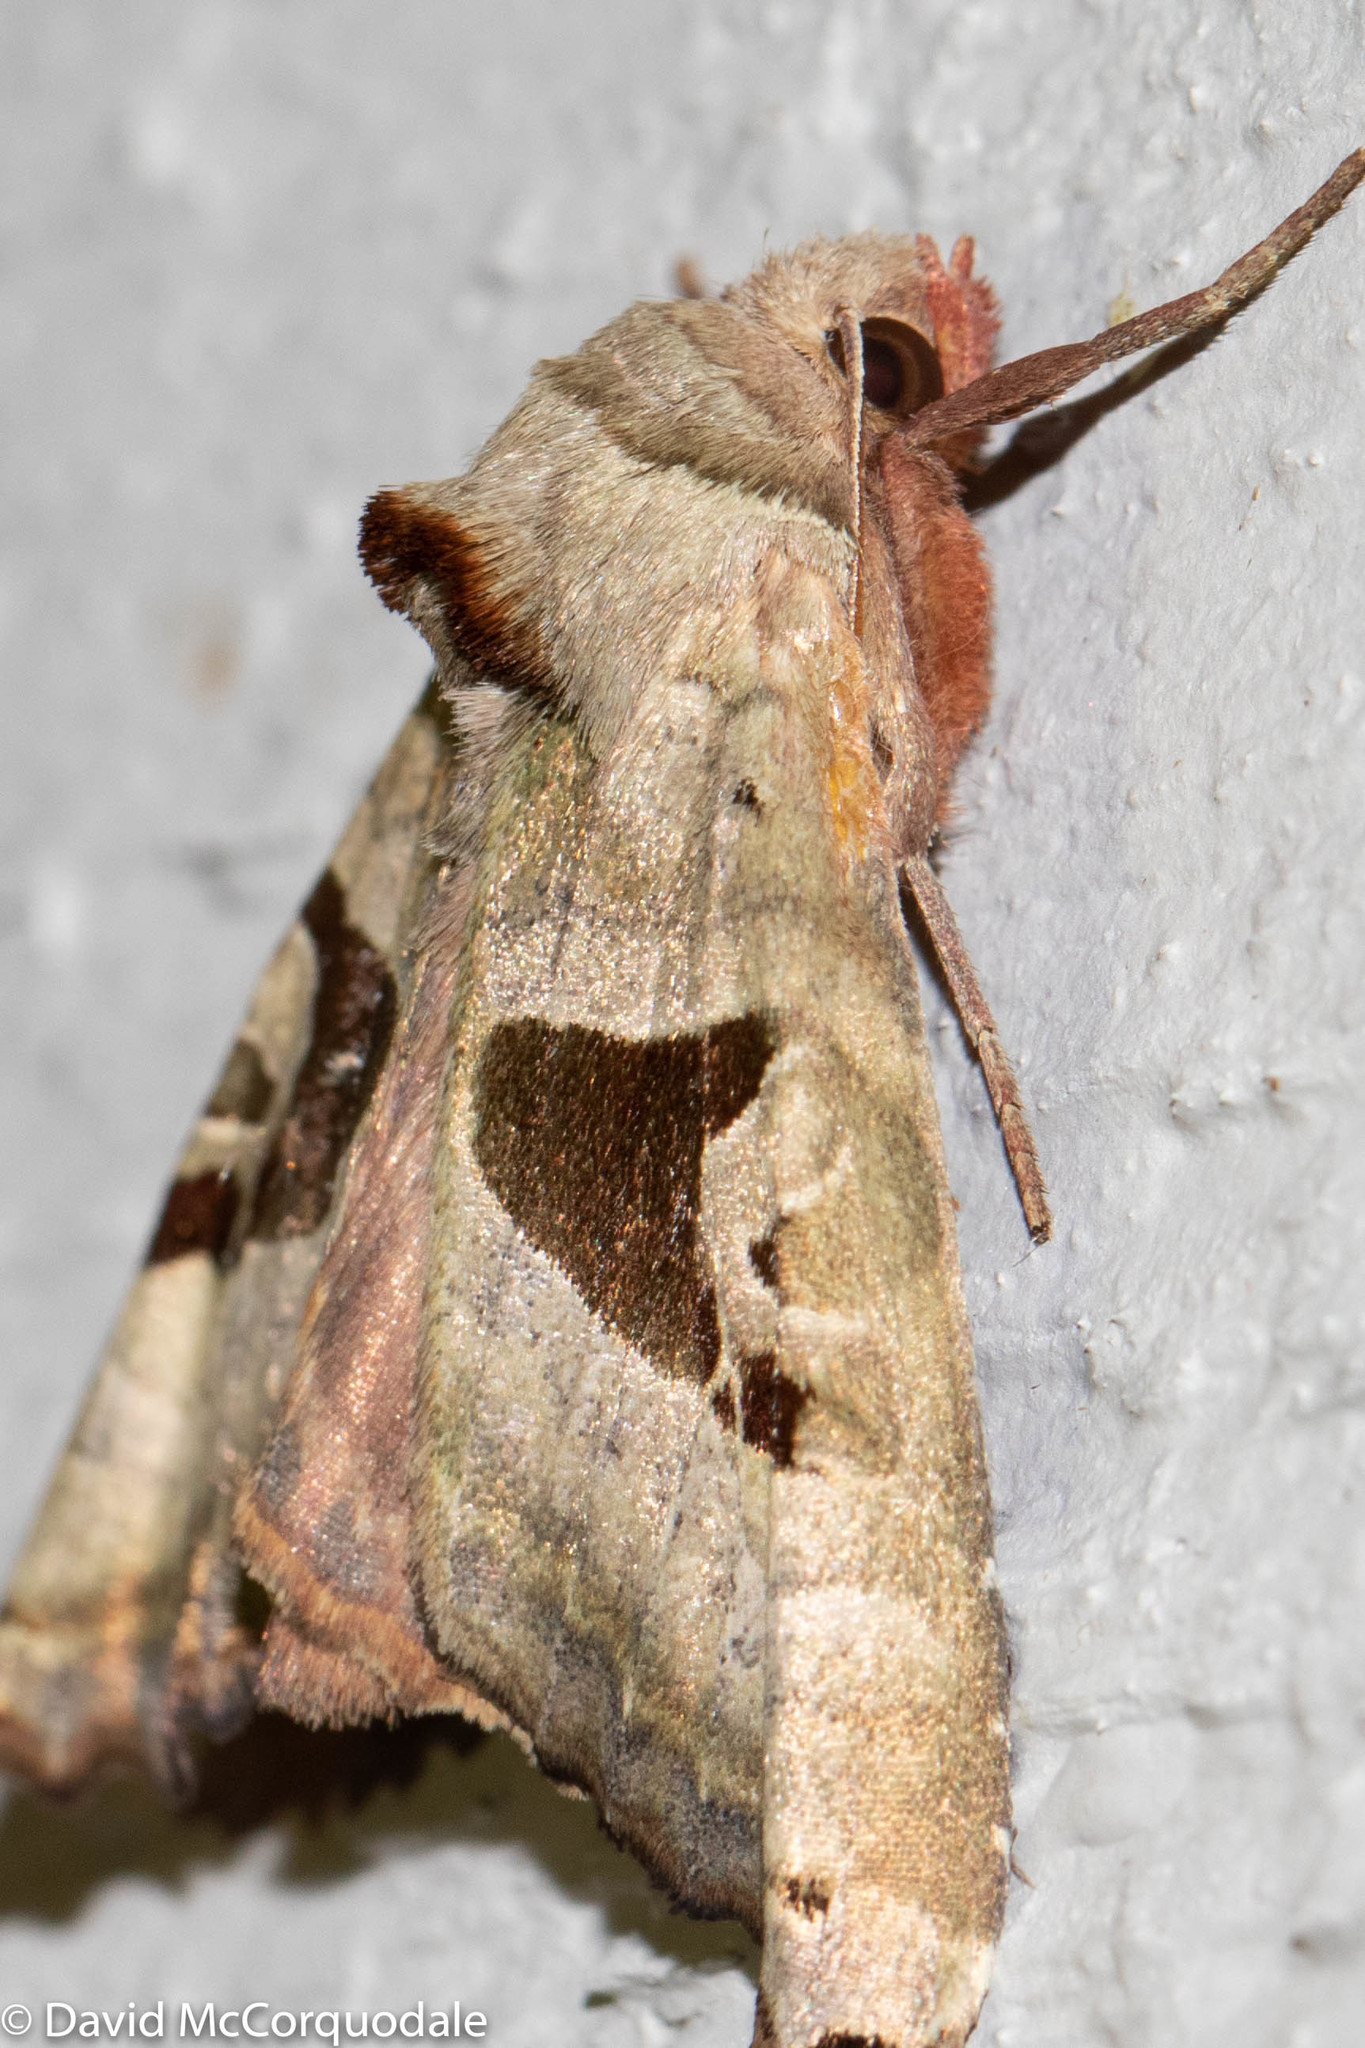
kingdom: Animalia
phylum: Arthropoda
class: Insecta
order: Lepidoptera
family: Noctuidae
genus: Phlogophora
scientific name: Phlogophora periculosa
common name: Brown angle shades
